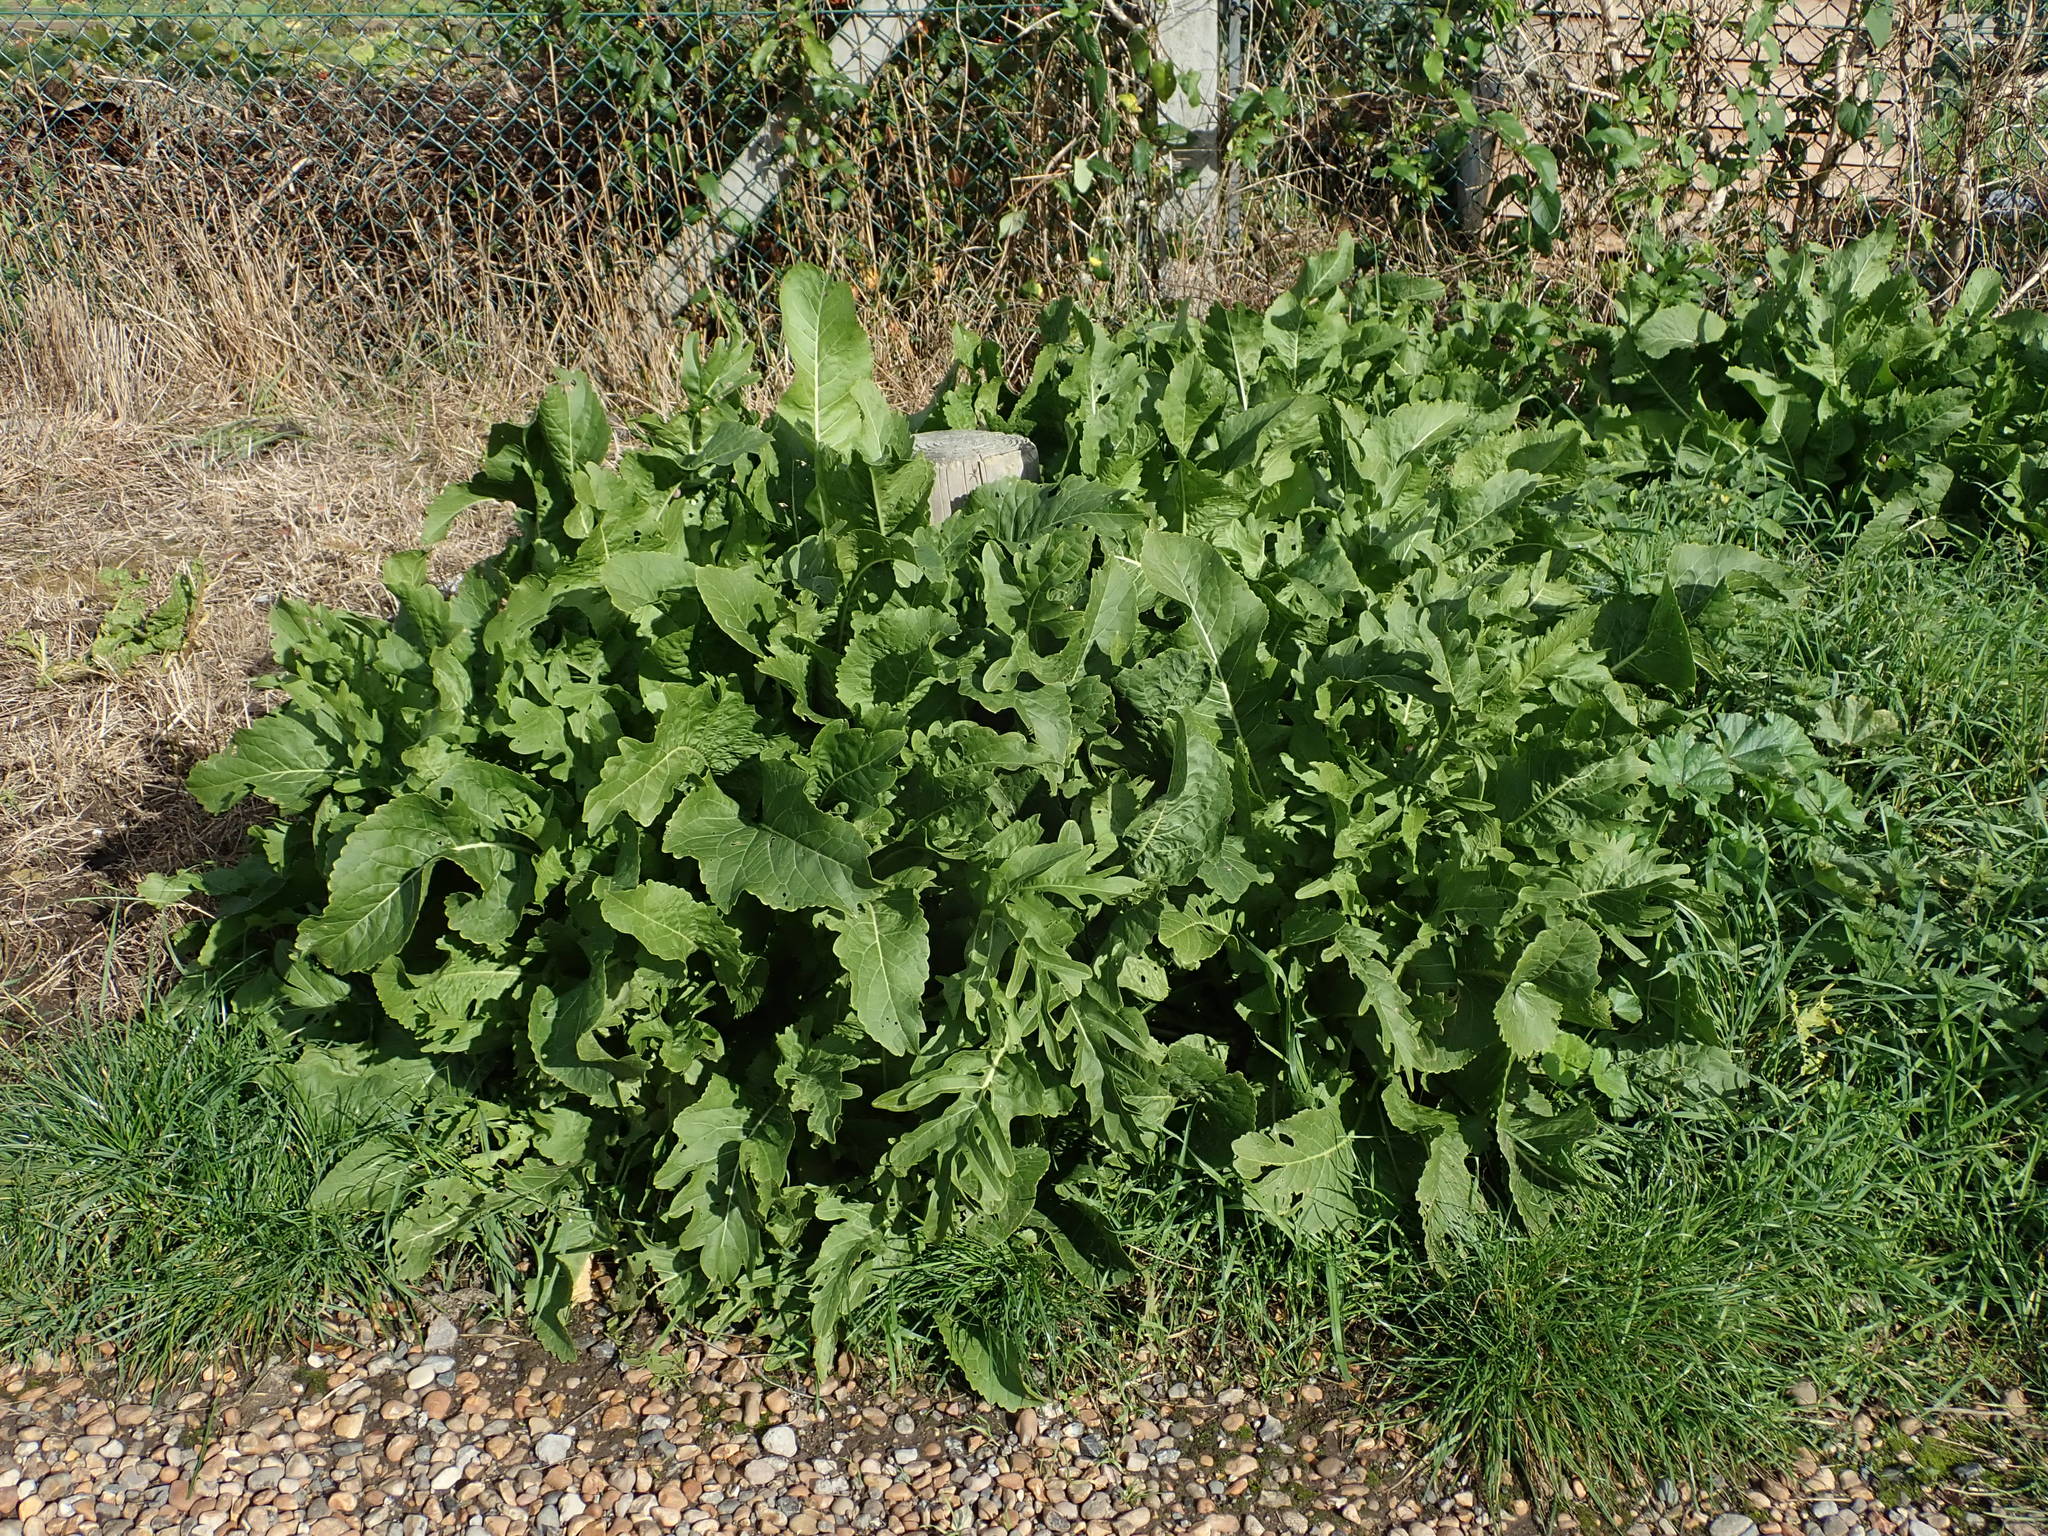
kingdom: Plantae
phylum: Tracheophyta
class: Magnoliopsida
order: Brassicales
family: Brassicaceae
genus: Armoracia
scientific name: Armoracia rusticana
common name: Horseradish
